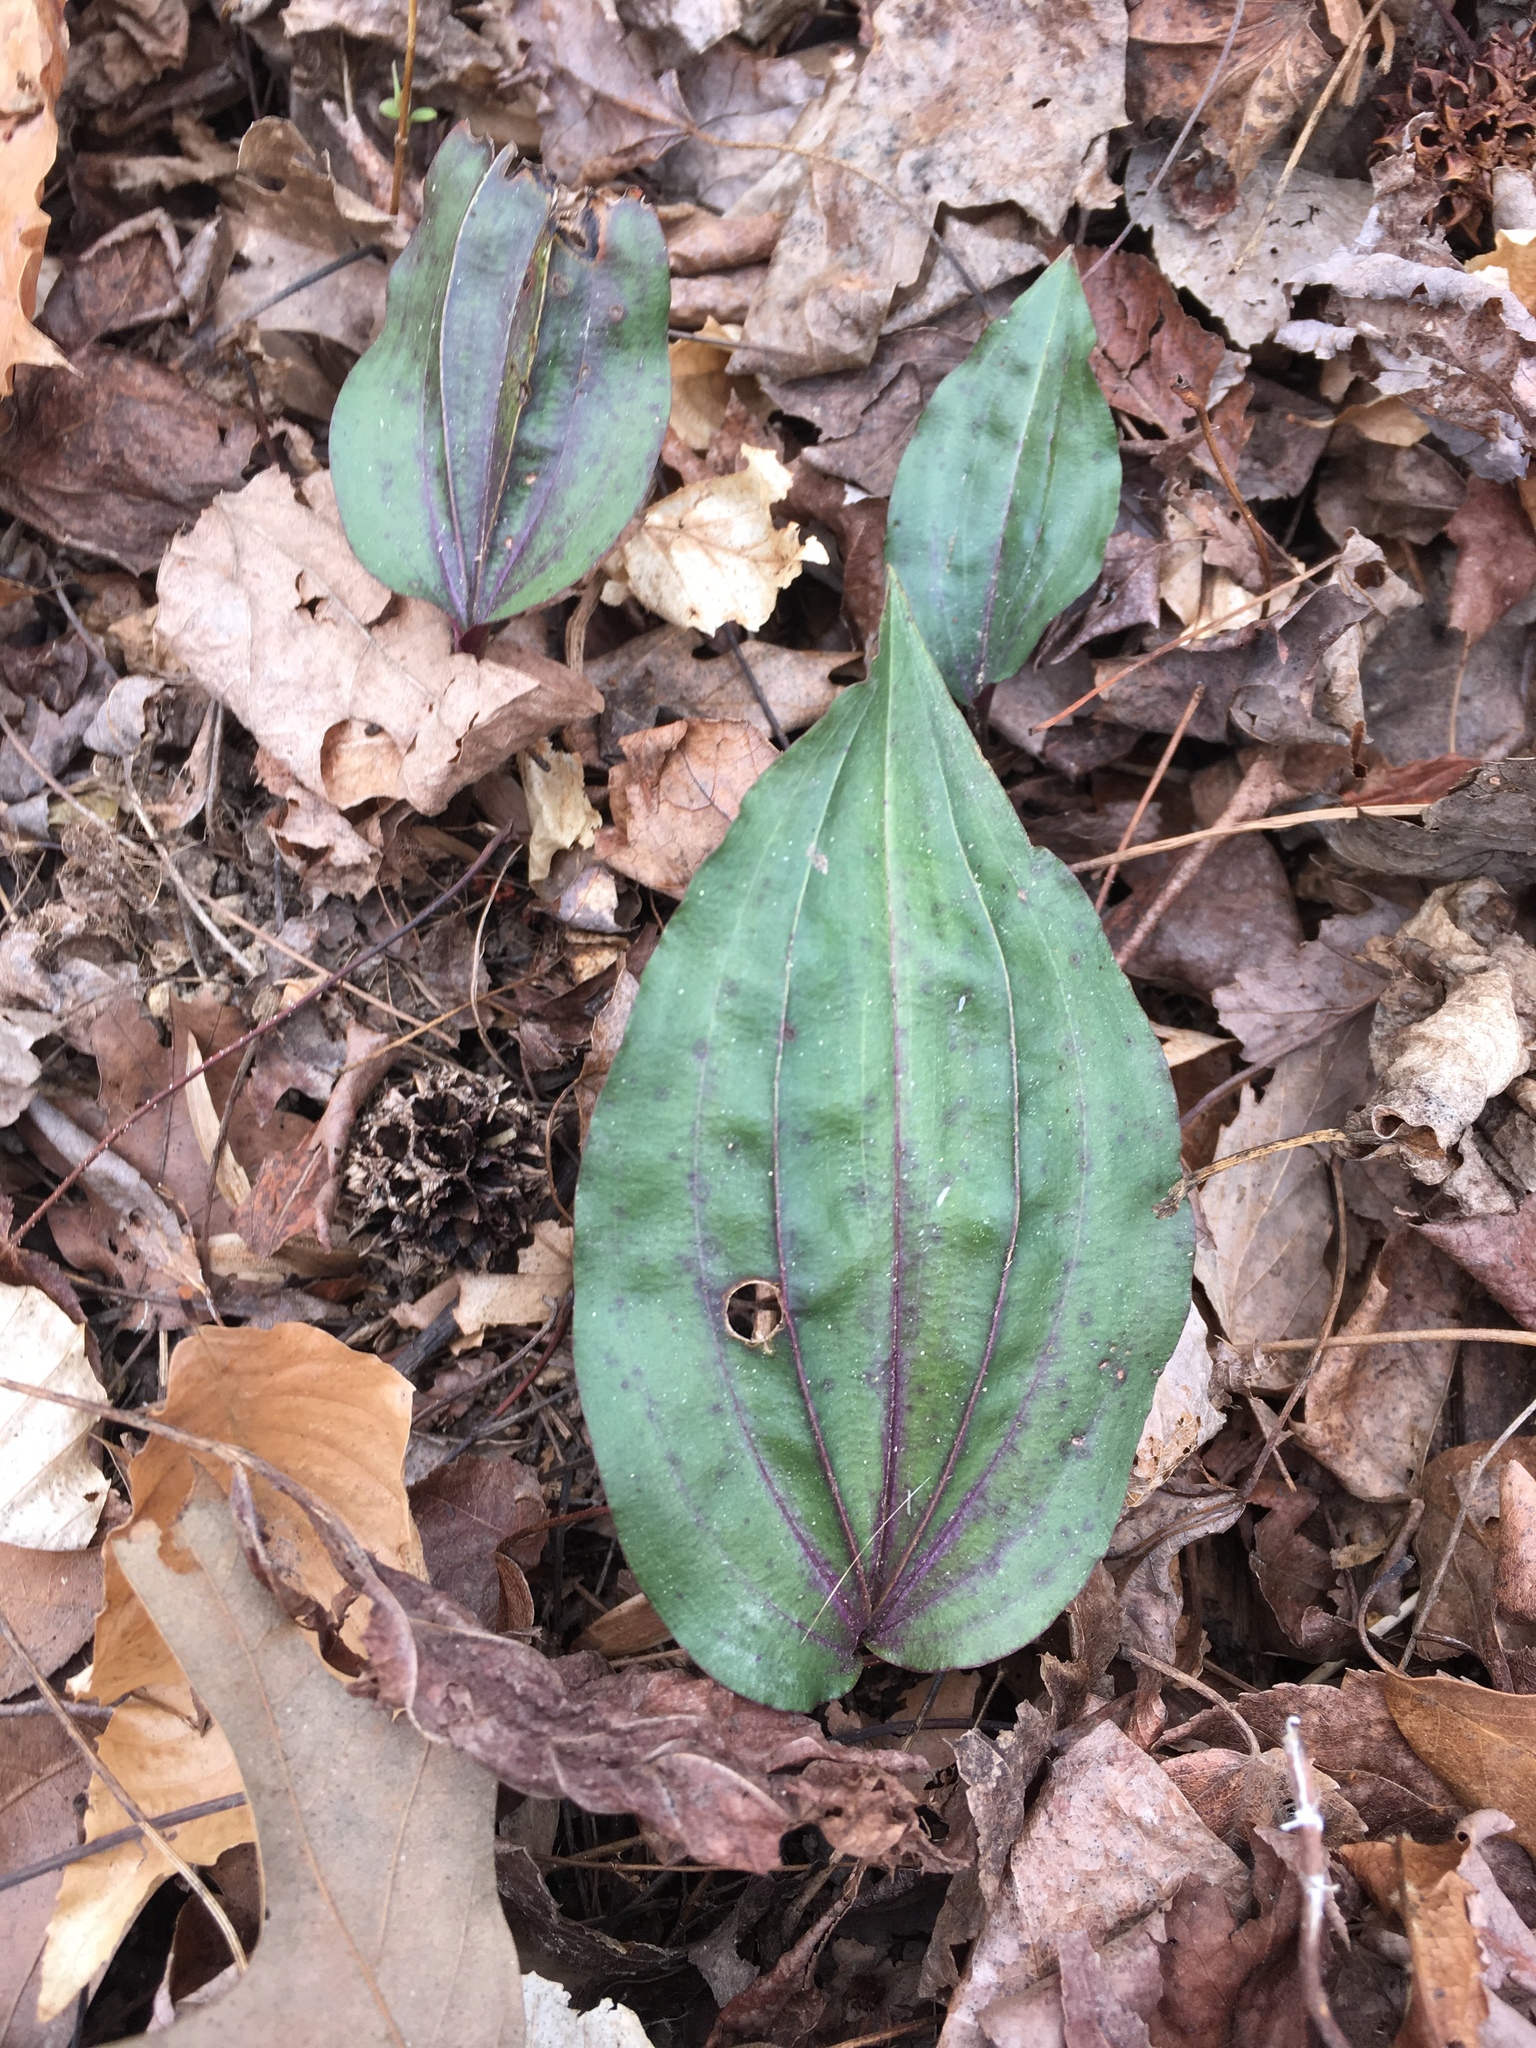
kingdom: Plantae
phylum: Tracheophyta
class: Liliopsida
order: Asparagales
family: Orchidaceae
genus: Tipularia
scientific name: Tipularia discolor
